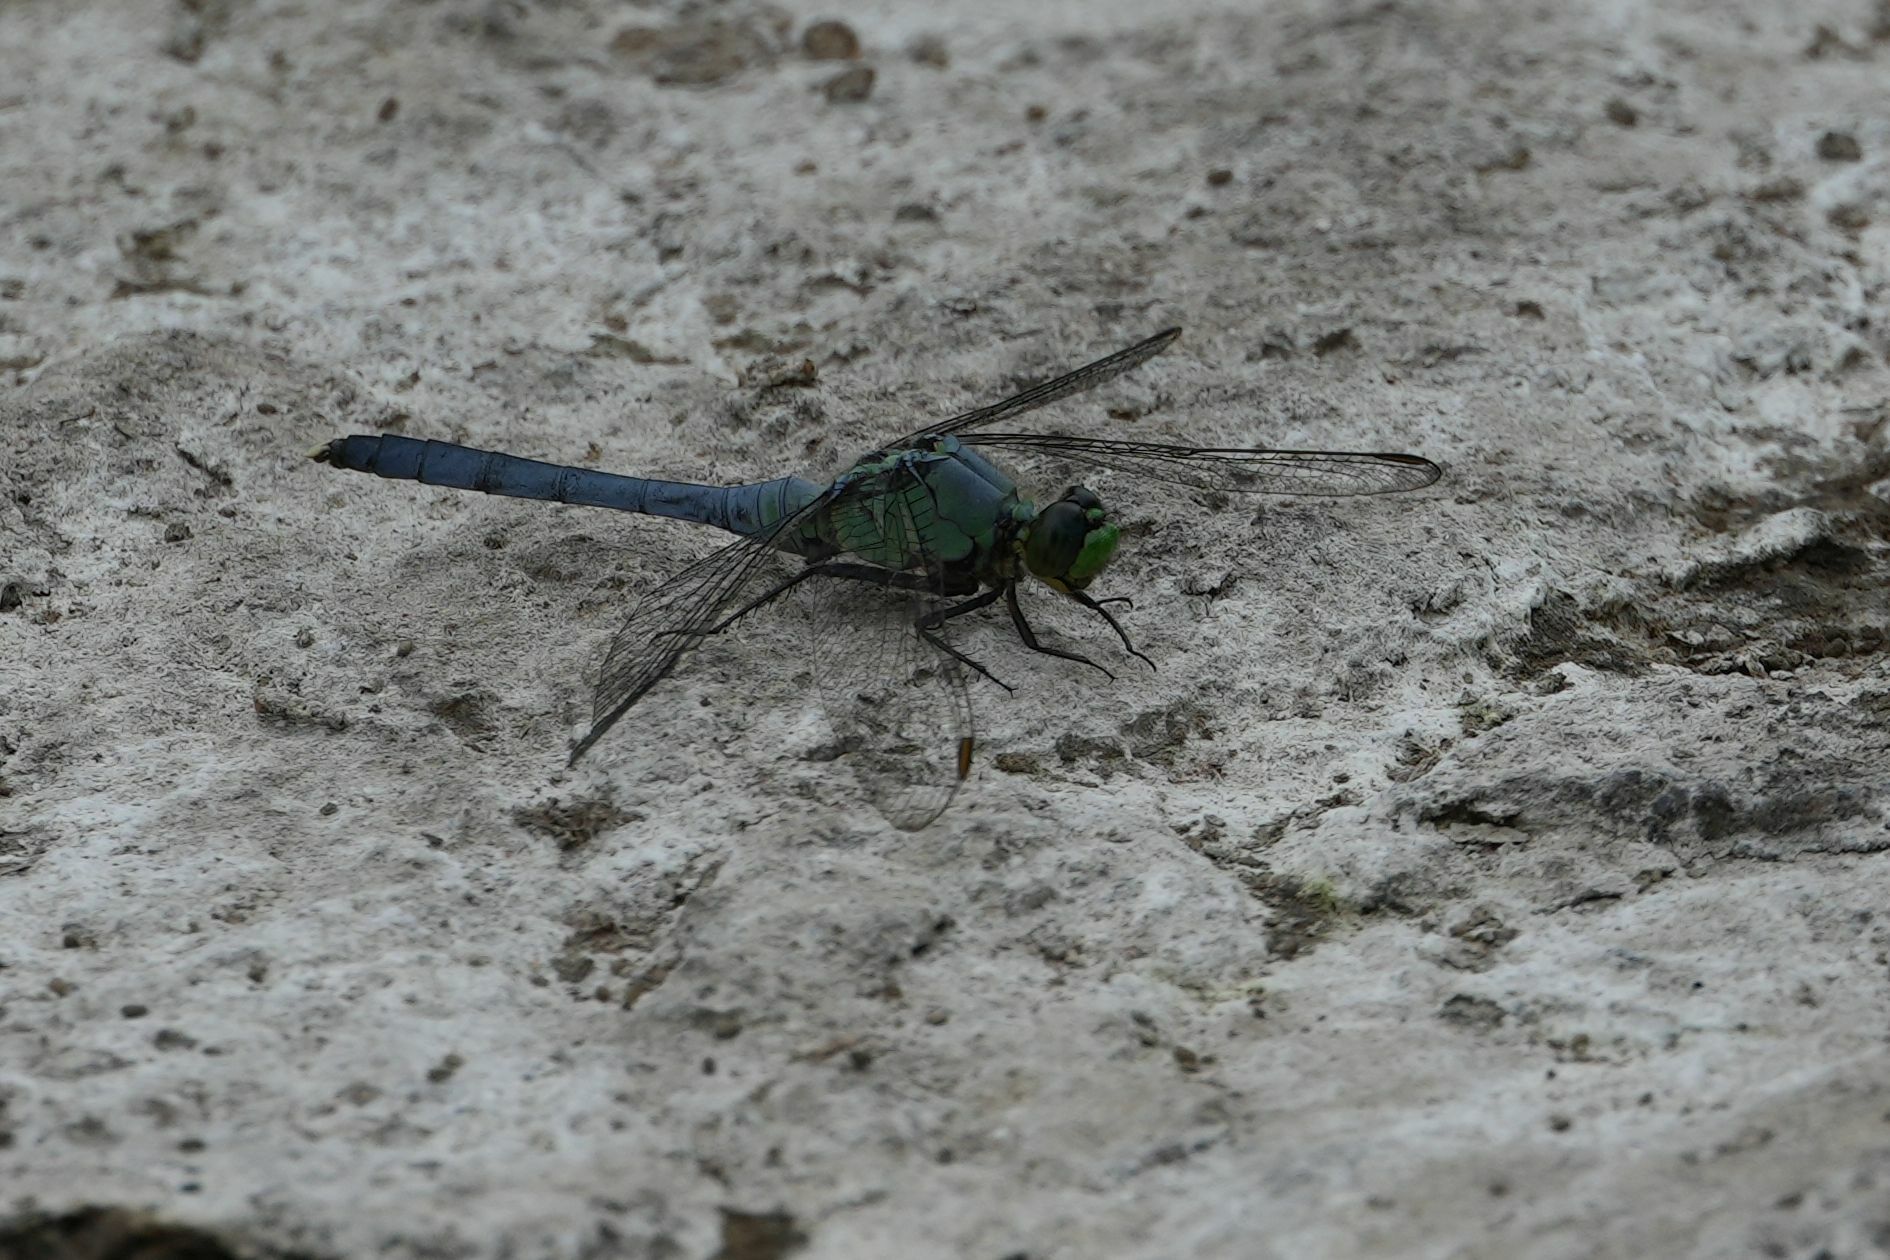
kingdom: Animalia
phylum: Arthropoda
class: Insecta
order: Odonata
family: Libellulidae
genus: Erythemis
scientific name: Erythemis simplicicollis
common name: Eastern pondhawk
